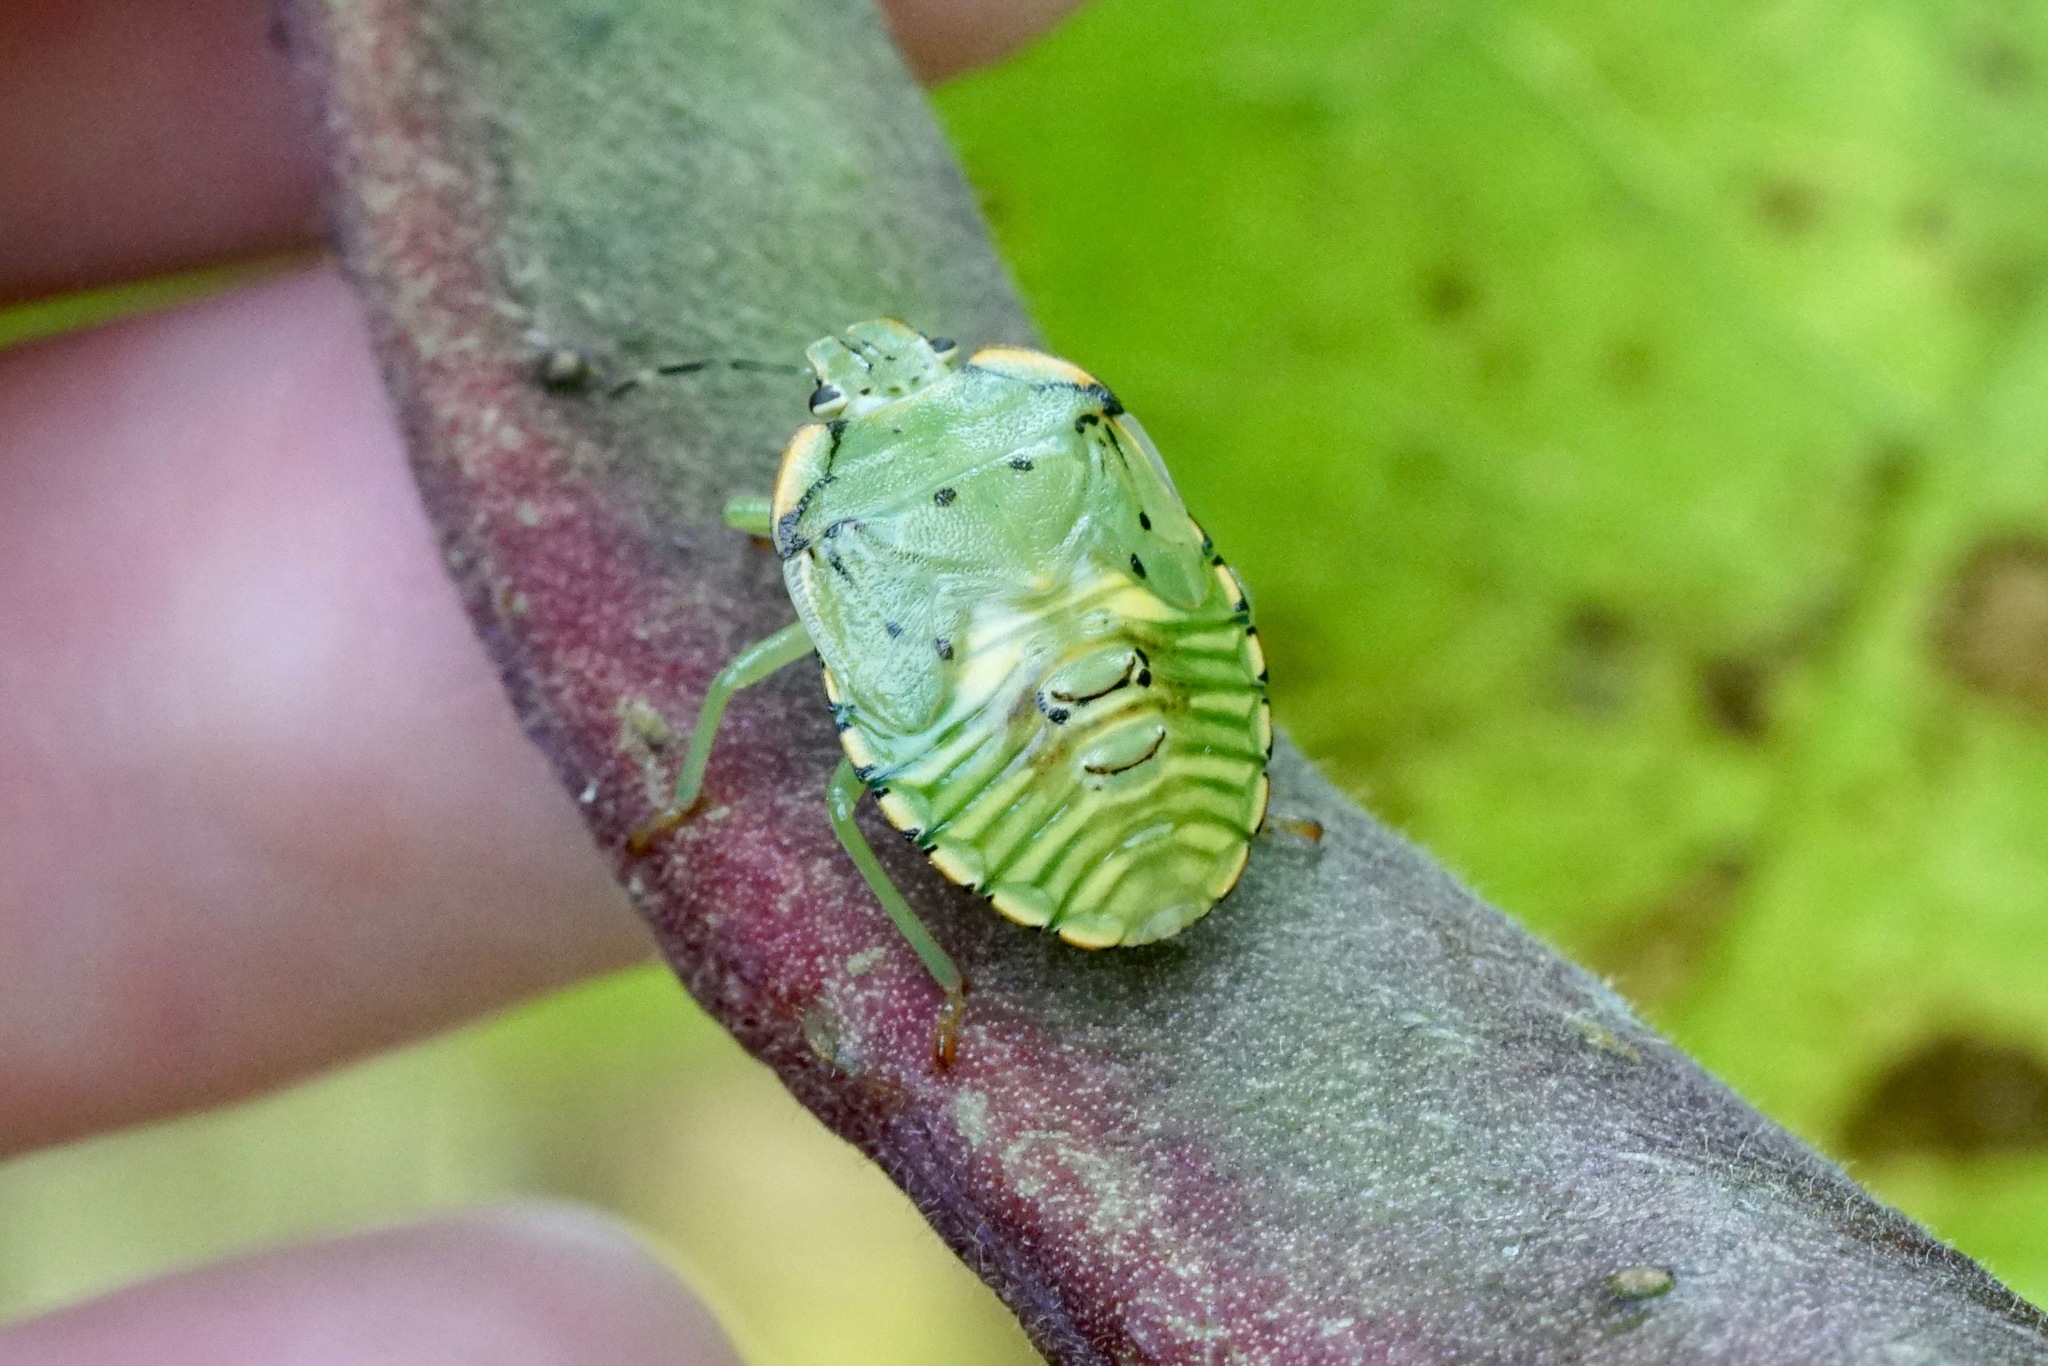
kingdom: Animalia
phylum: Arthropoda
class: Insecta
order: Hemiptera
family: Pentatomidae
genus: Chinavia
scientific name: Chinavia hilaris
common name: Green stink bug
